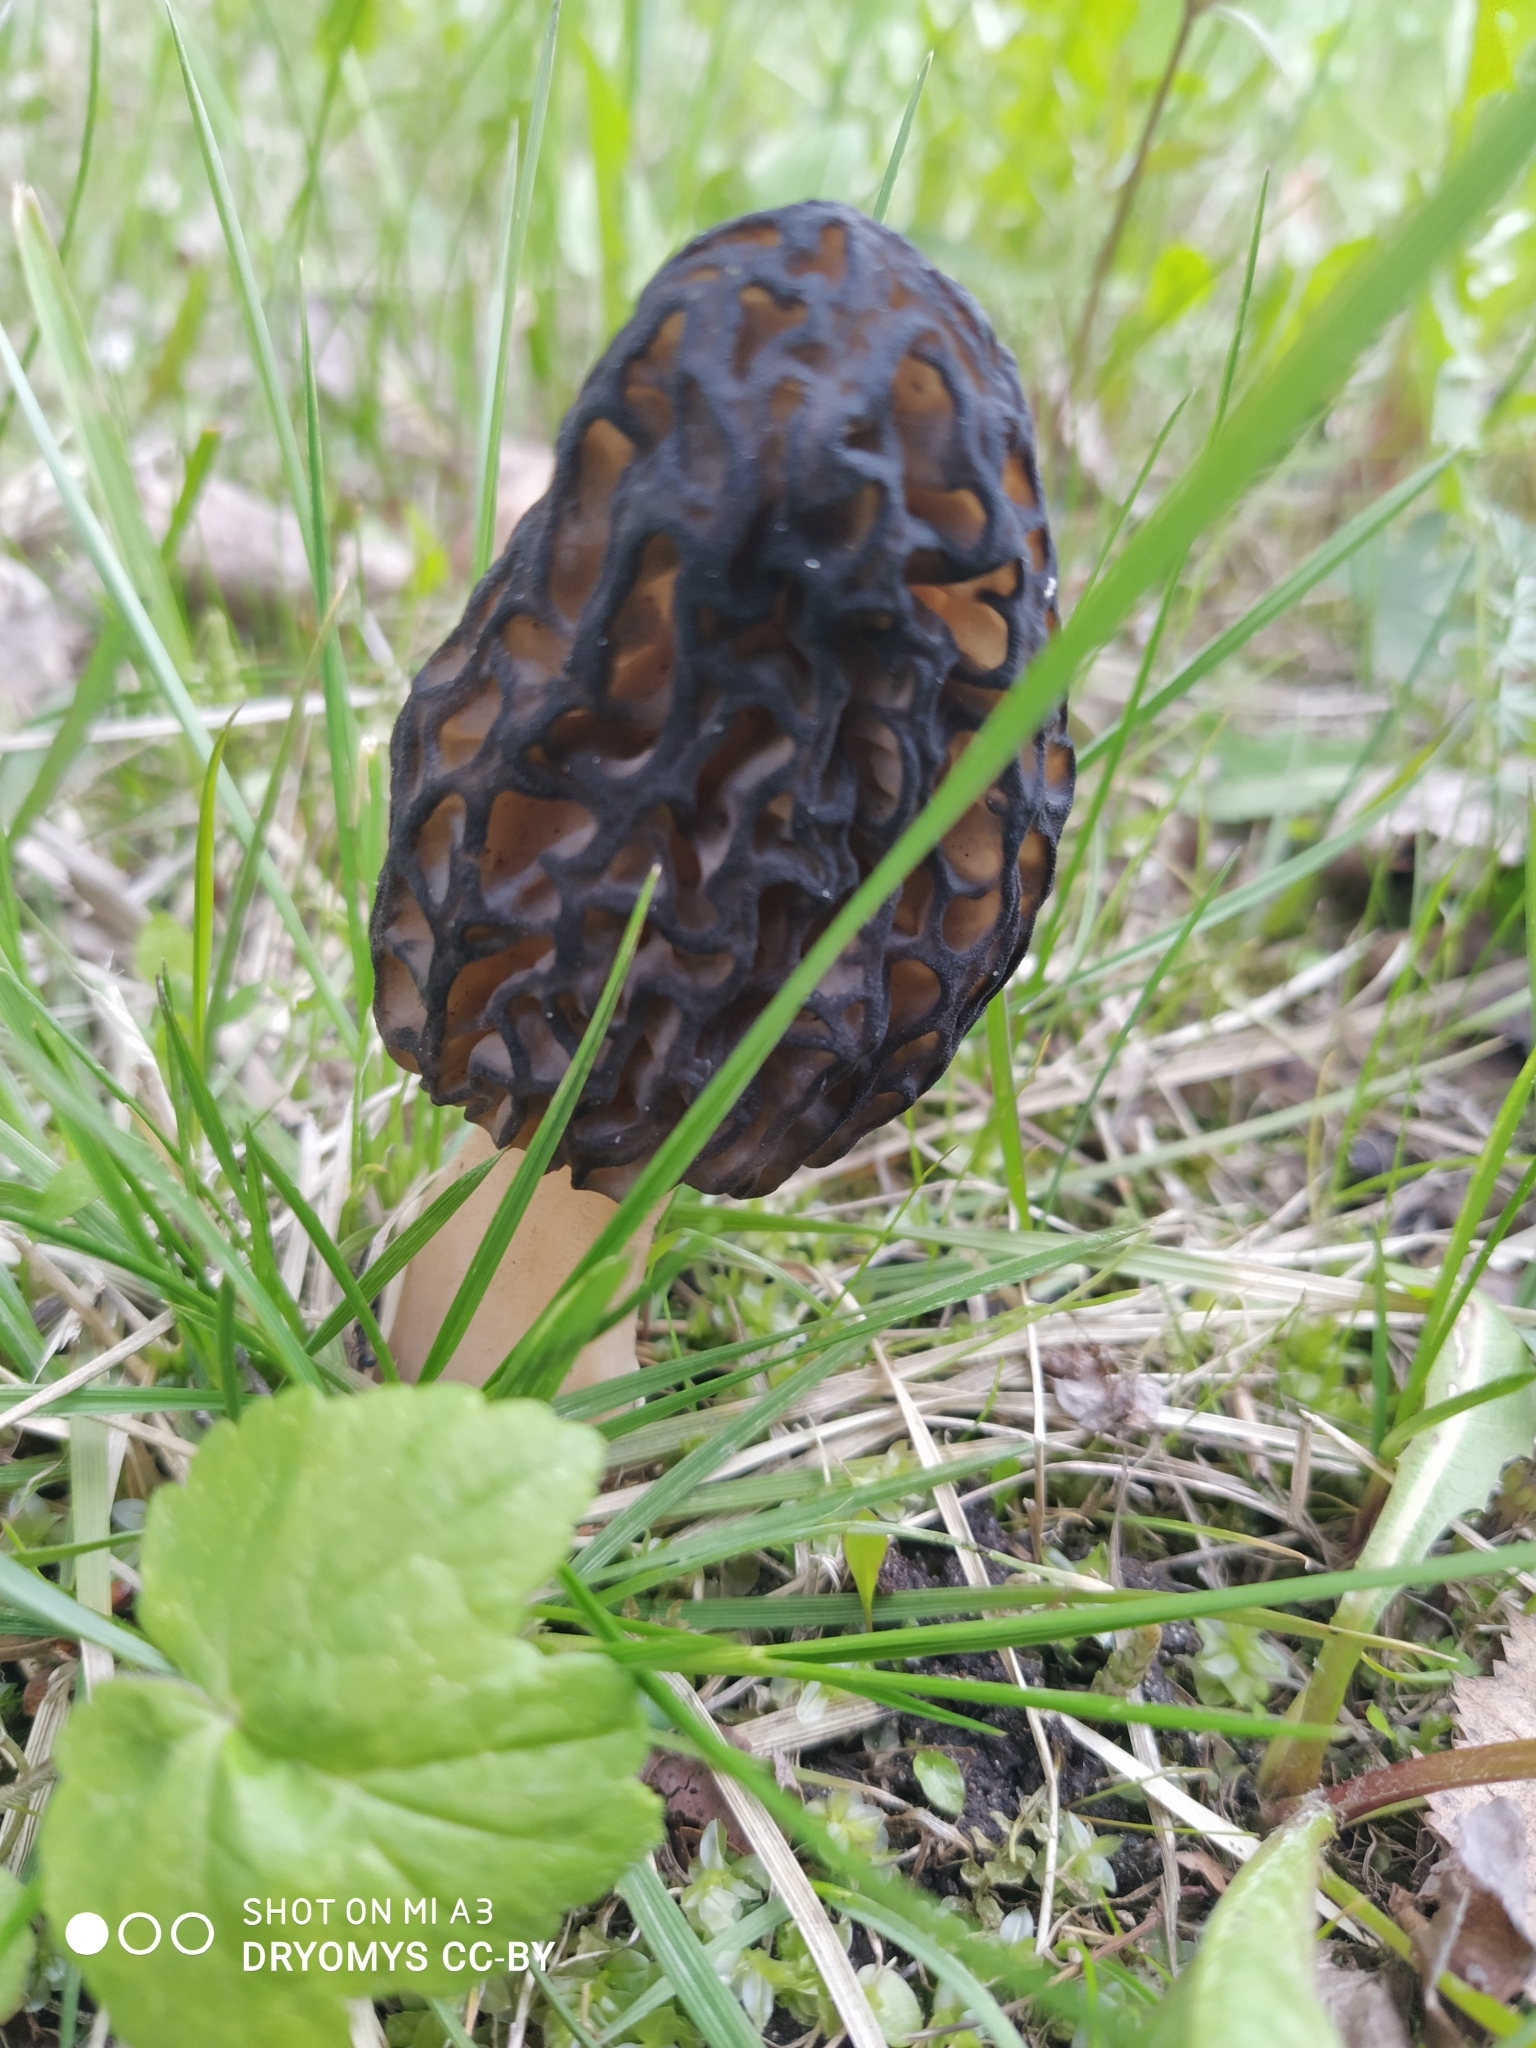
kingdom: Fungi
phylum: Ascomycota
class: Pezizomycetes
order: Pezizales
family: Morchellaceae
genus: Morchella
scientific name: Morchella
